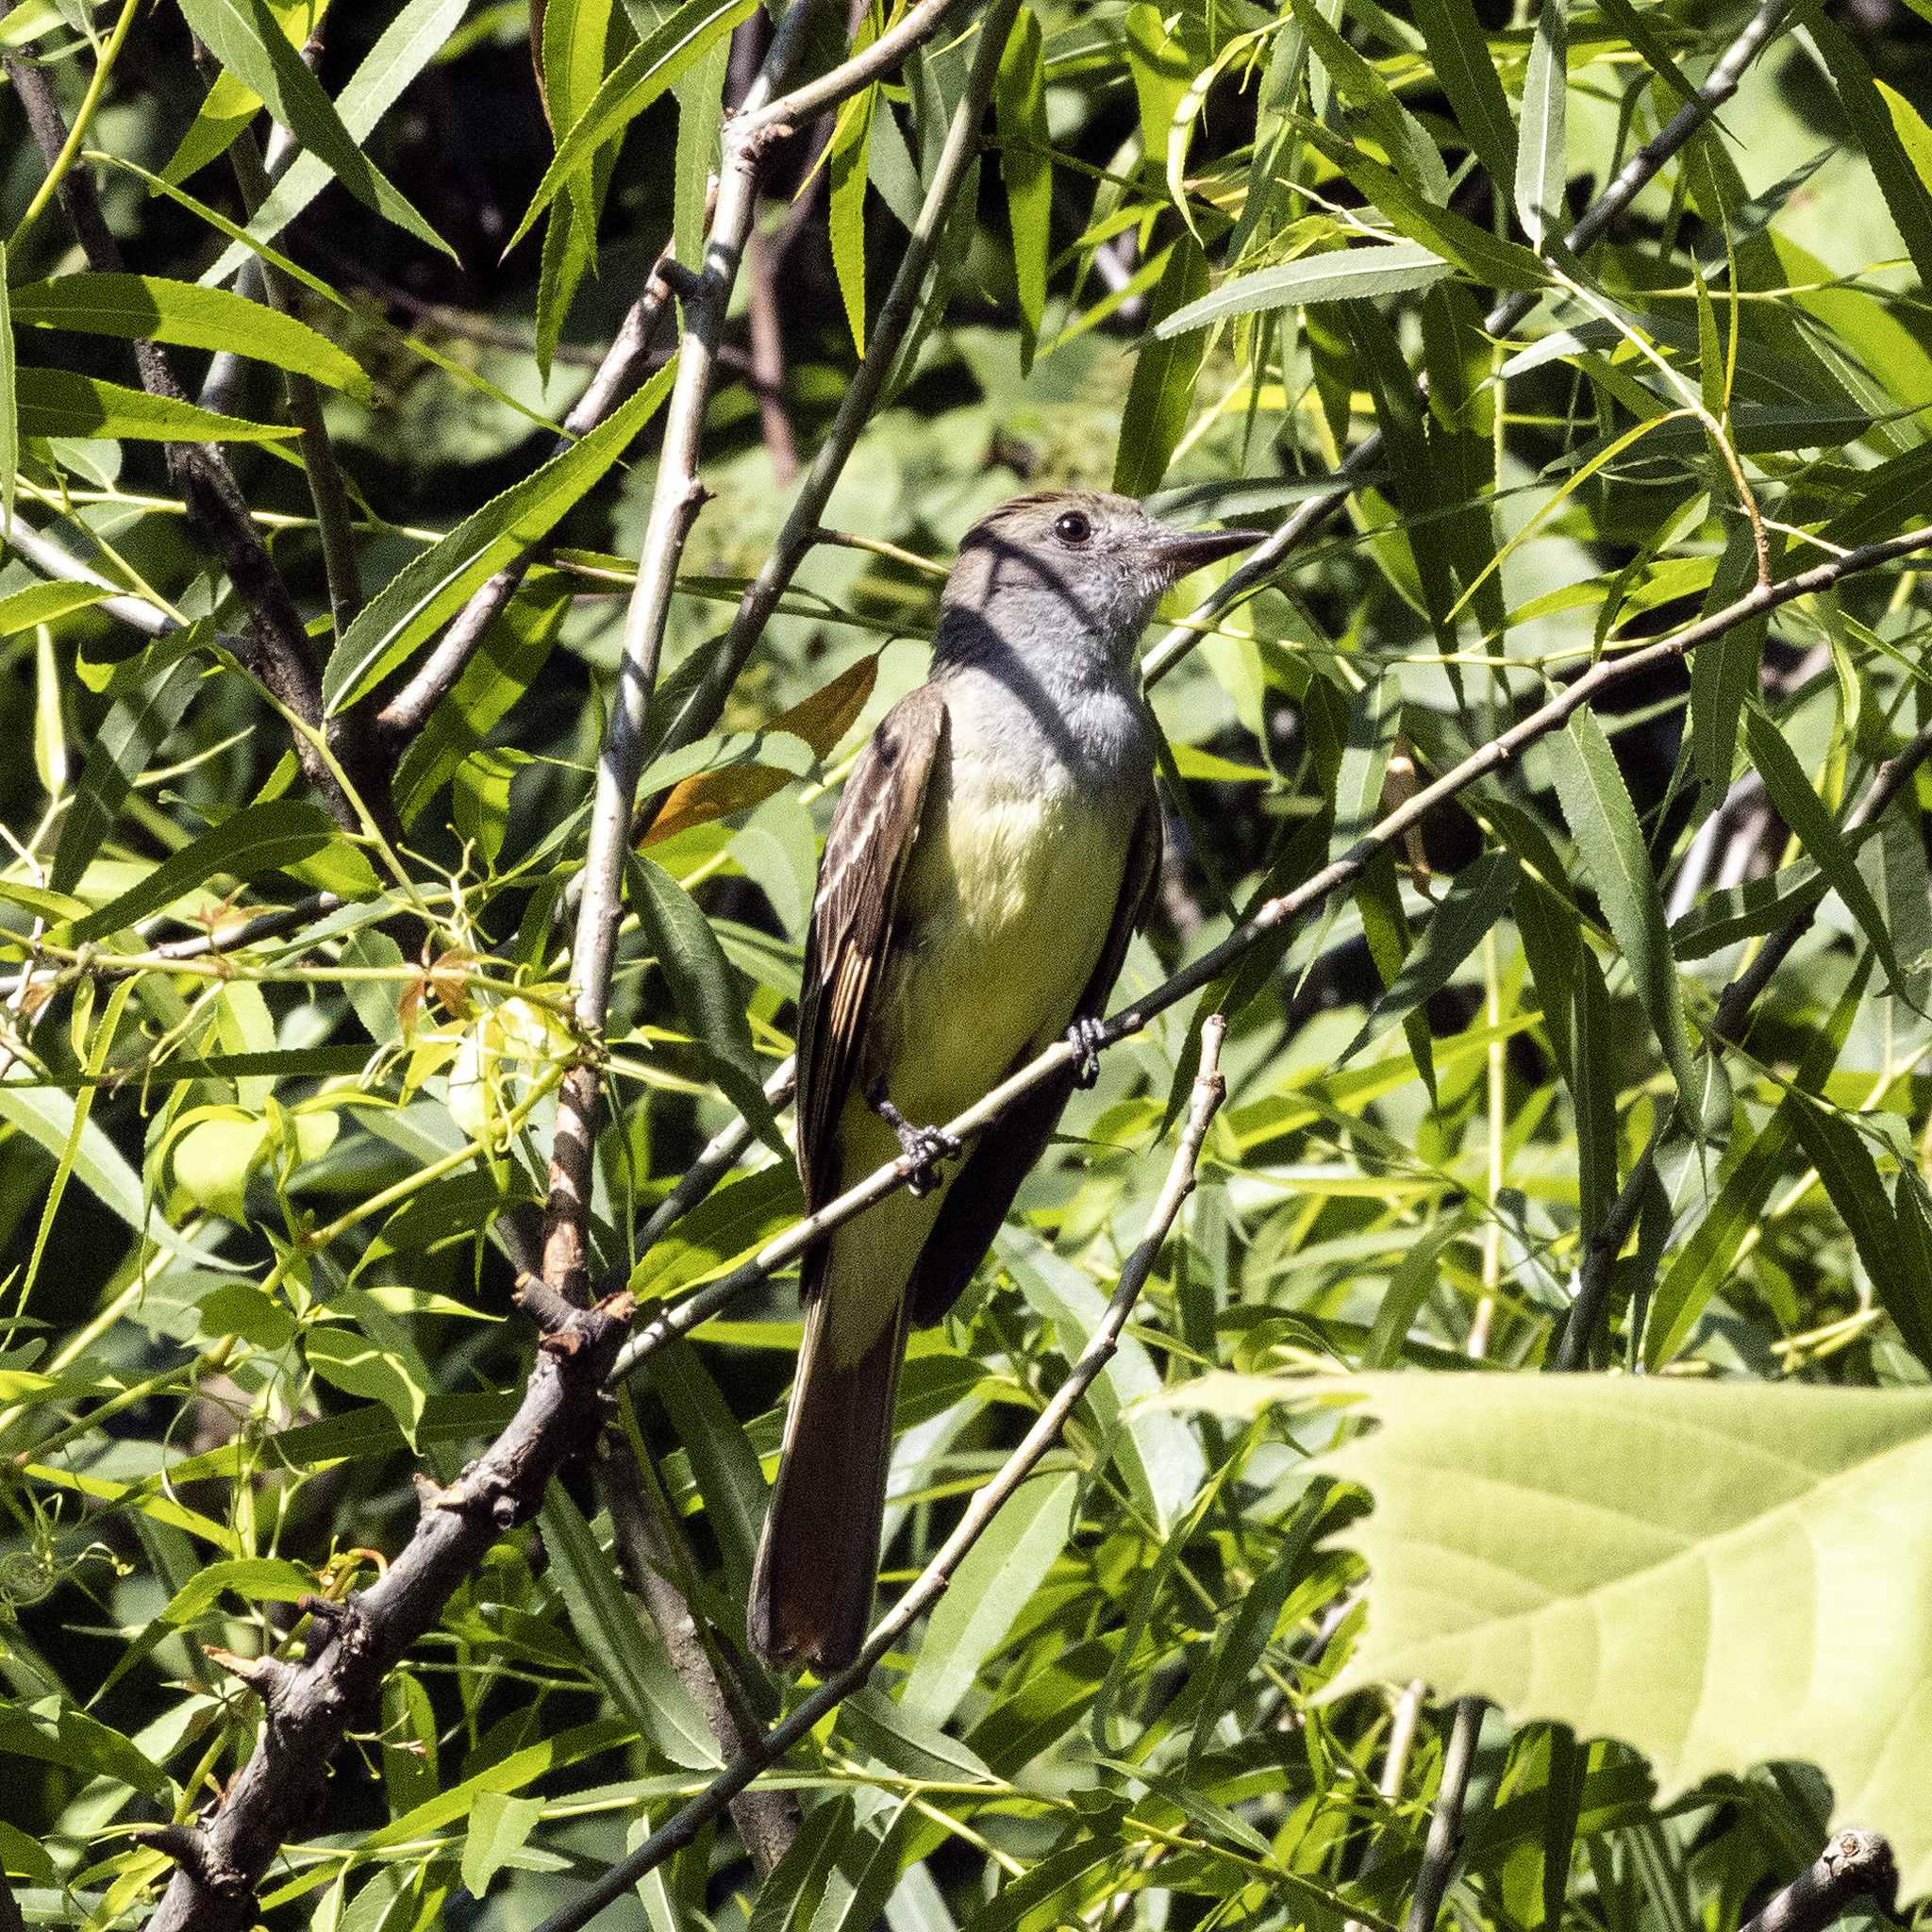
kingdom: Animalia
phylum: Chordata
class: Aves
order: Passeriformes
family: Tyrannidae
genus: Myiarchus
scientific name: Myiarchus crinitus
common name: Great crested flycatcher
